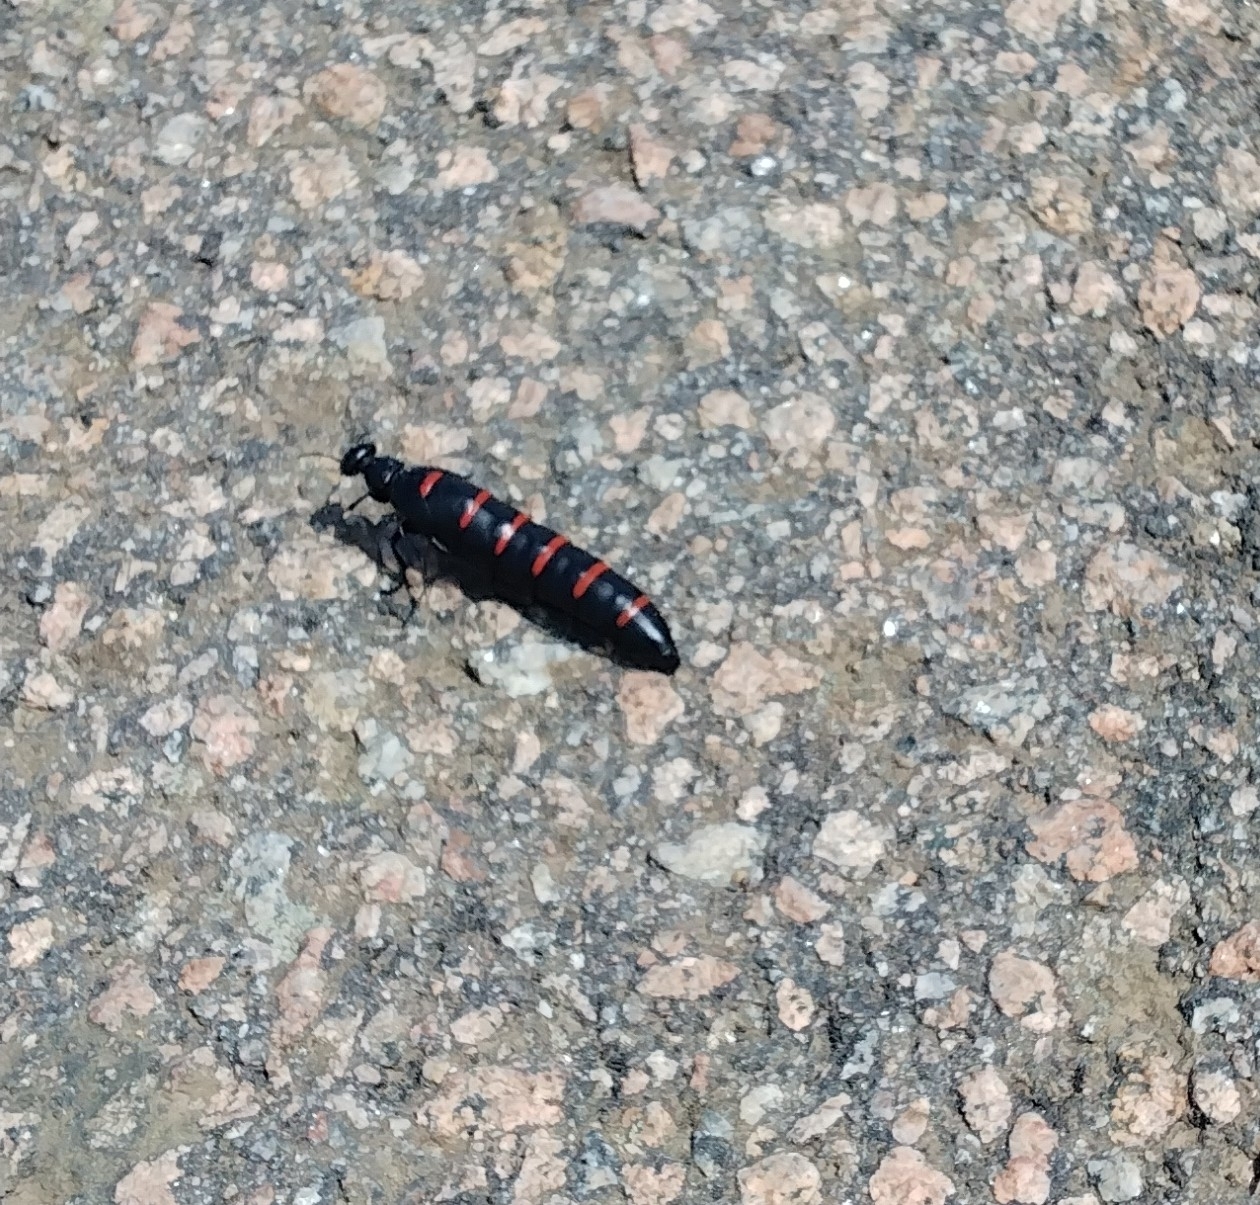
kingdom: Animalia
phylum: Arthropoda
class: Insecta
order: Coleoptera
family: Meloidae
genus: Berberomeloe
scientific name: Berberomeloe castuo
